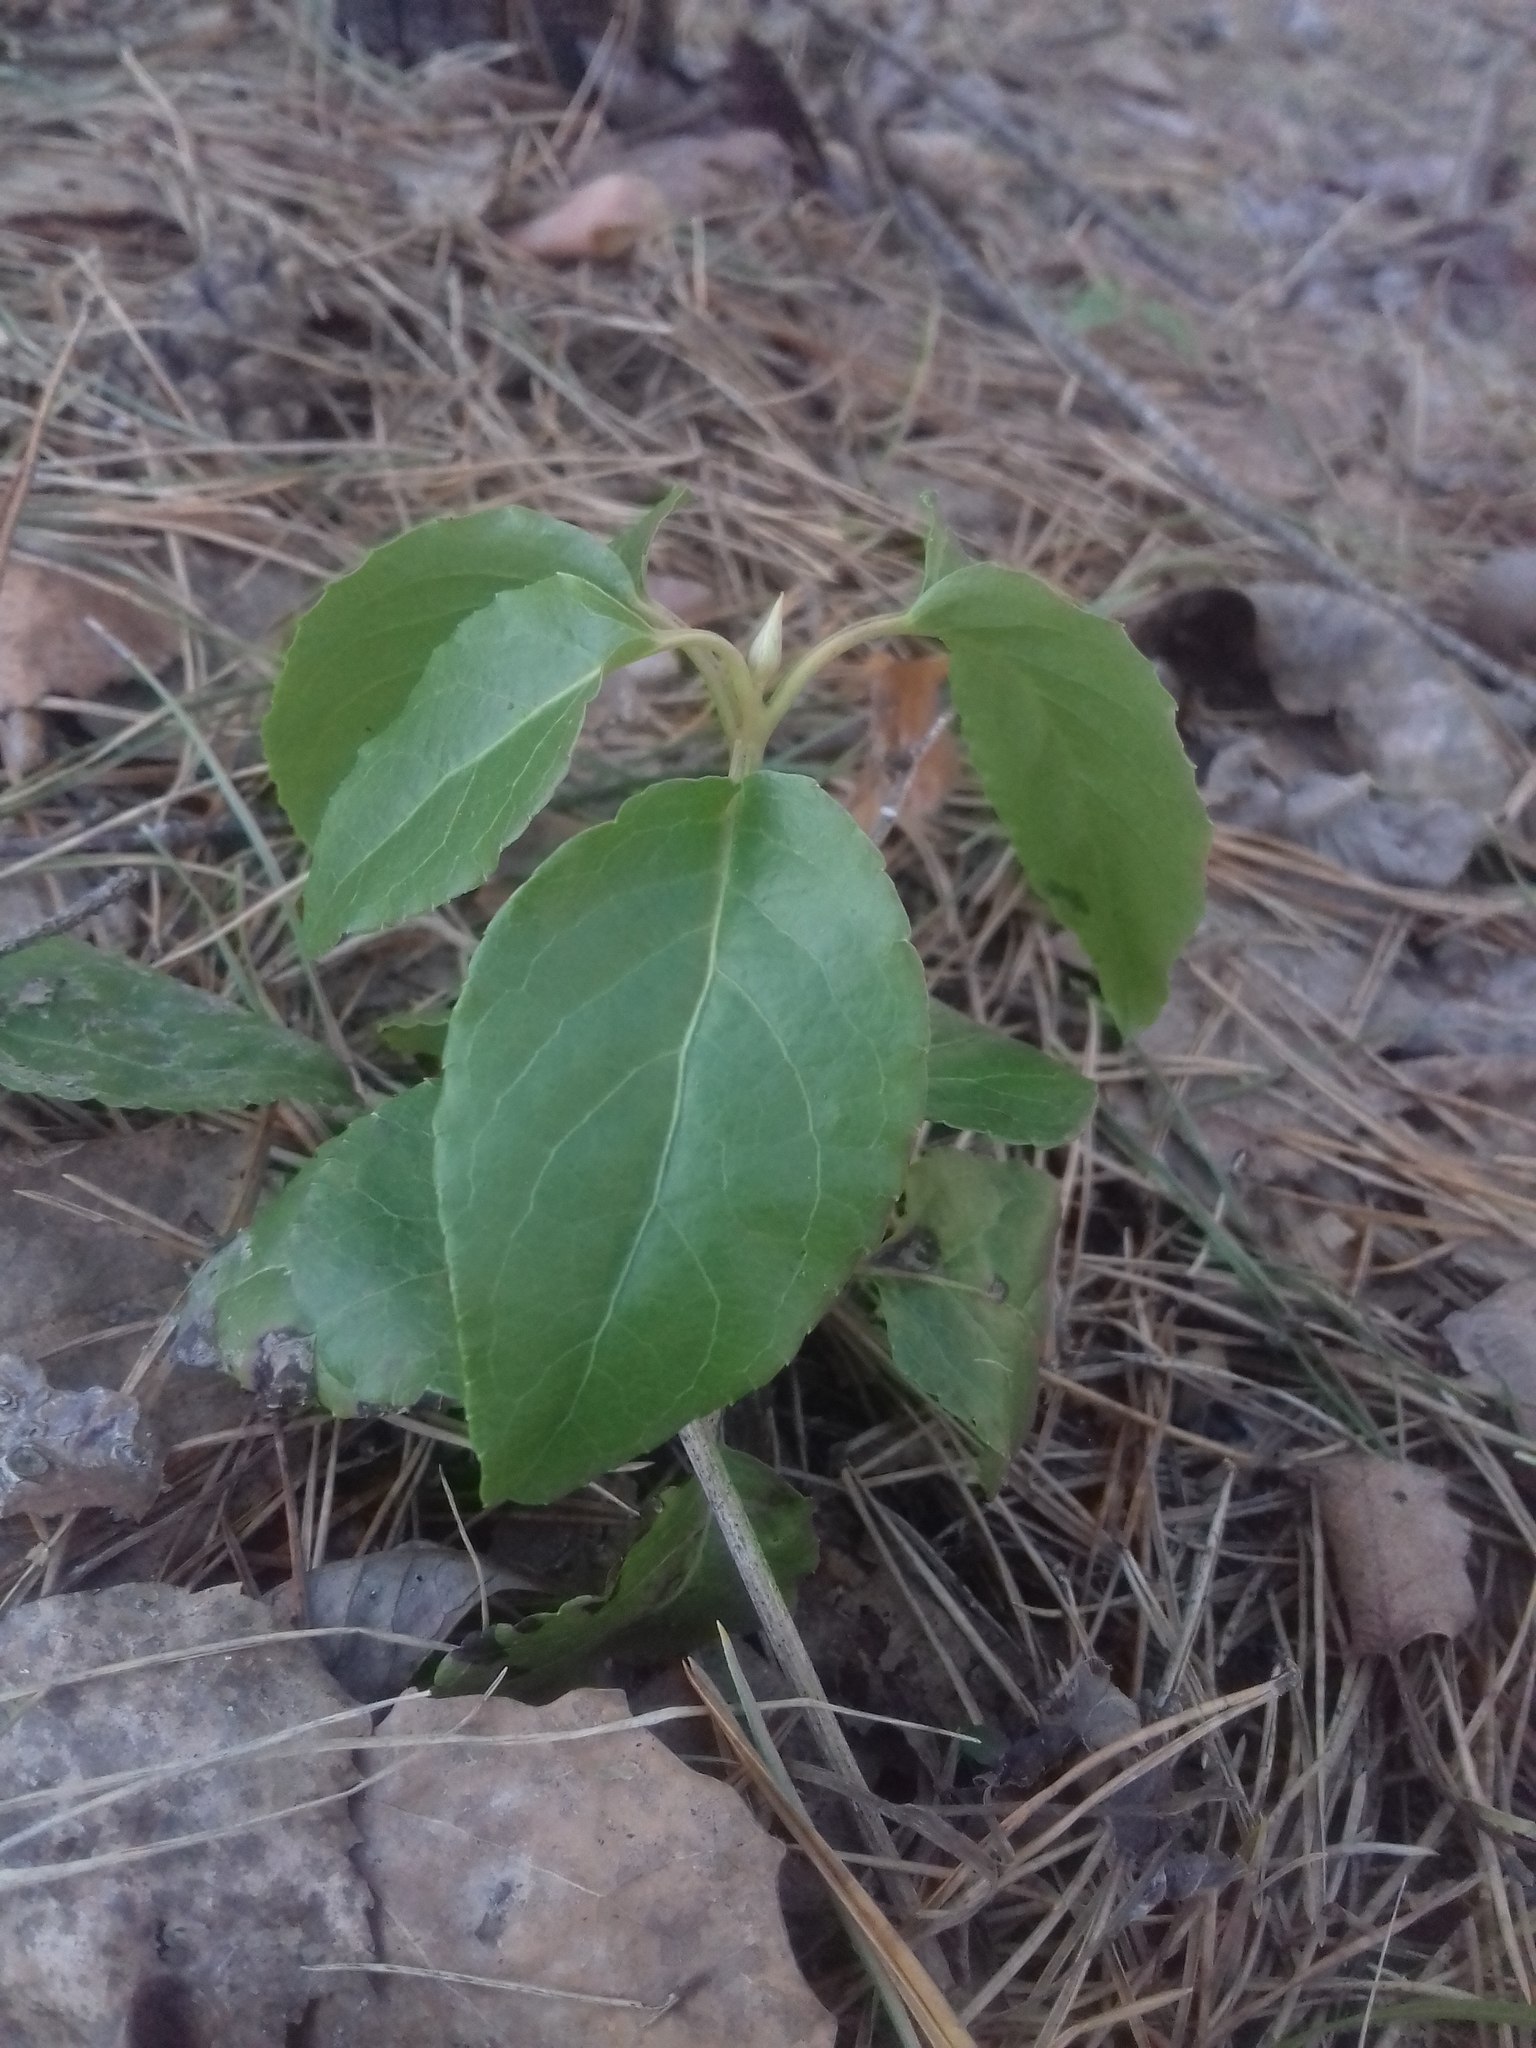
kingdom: Plantae
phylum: Tracheophyta
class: Magnoliopsida
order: Ericales
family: Ericaceae
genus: Orthilia
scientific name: Orthilia secunda
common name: One-sided orthilia
